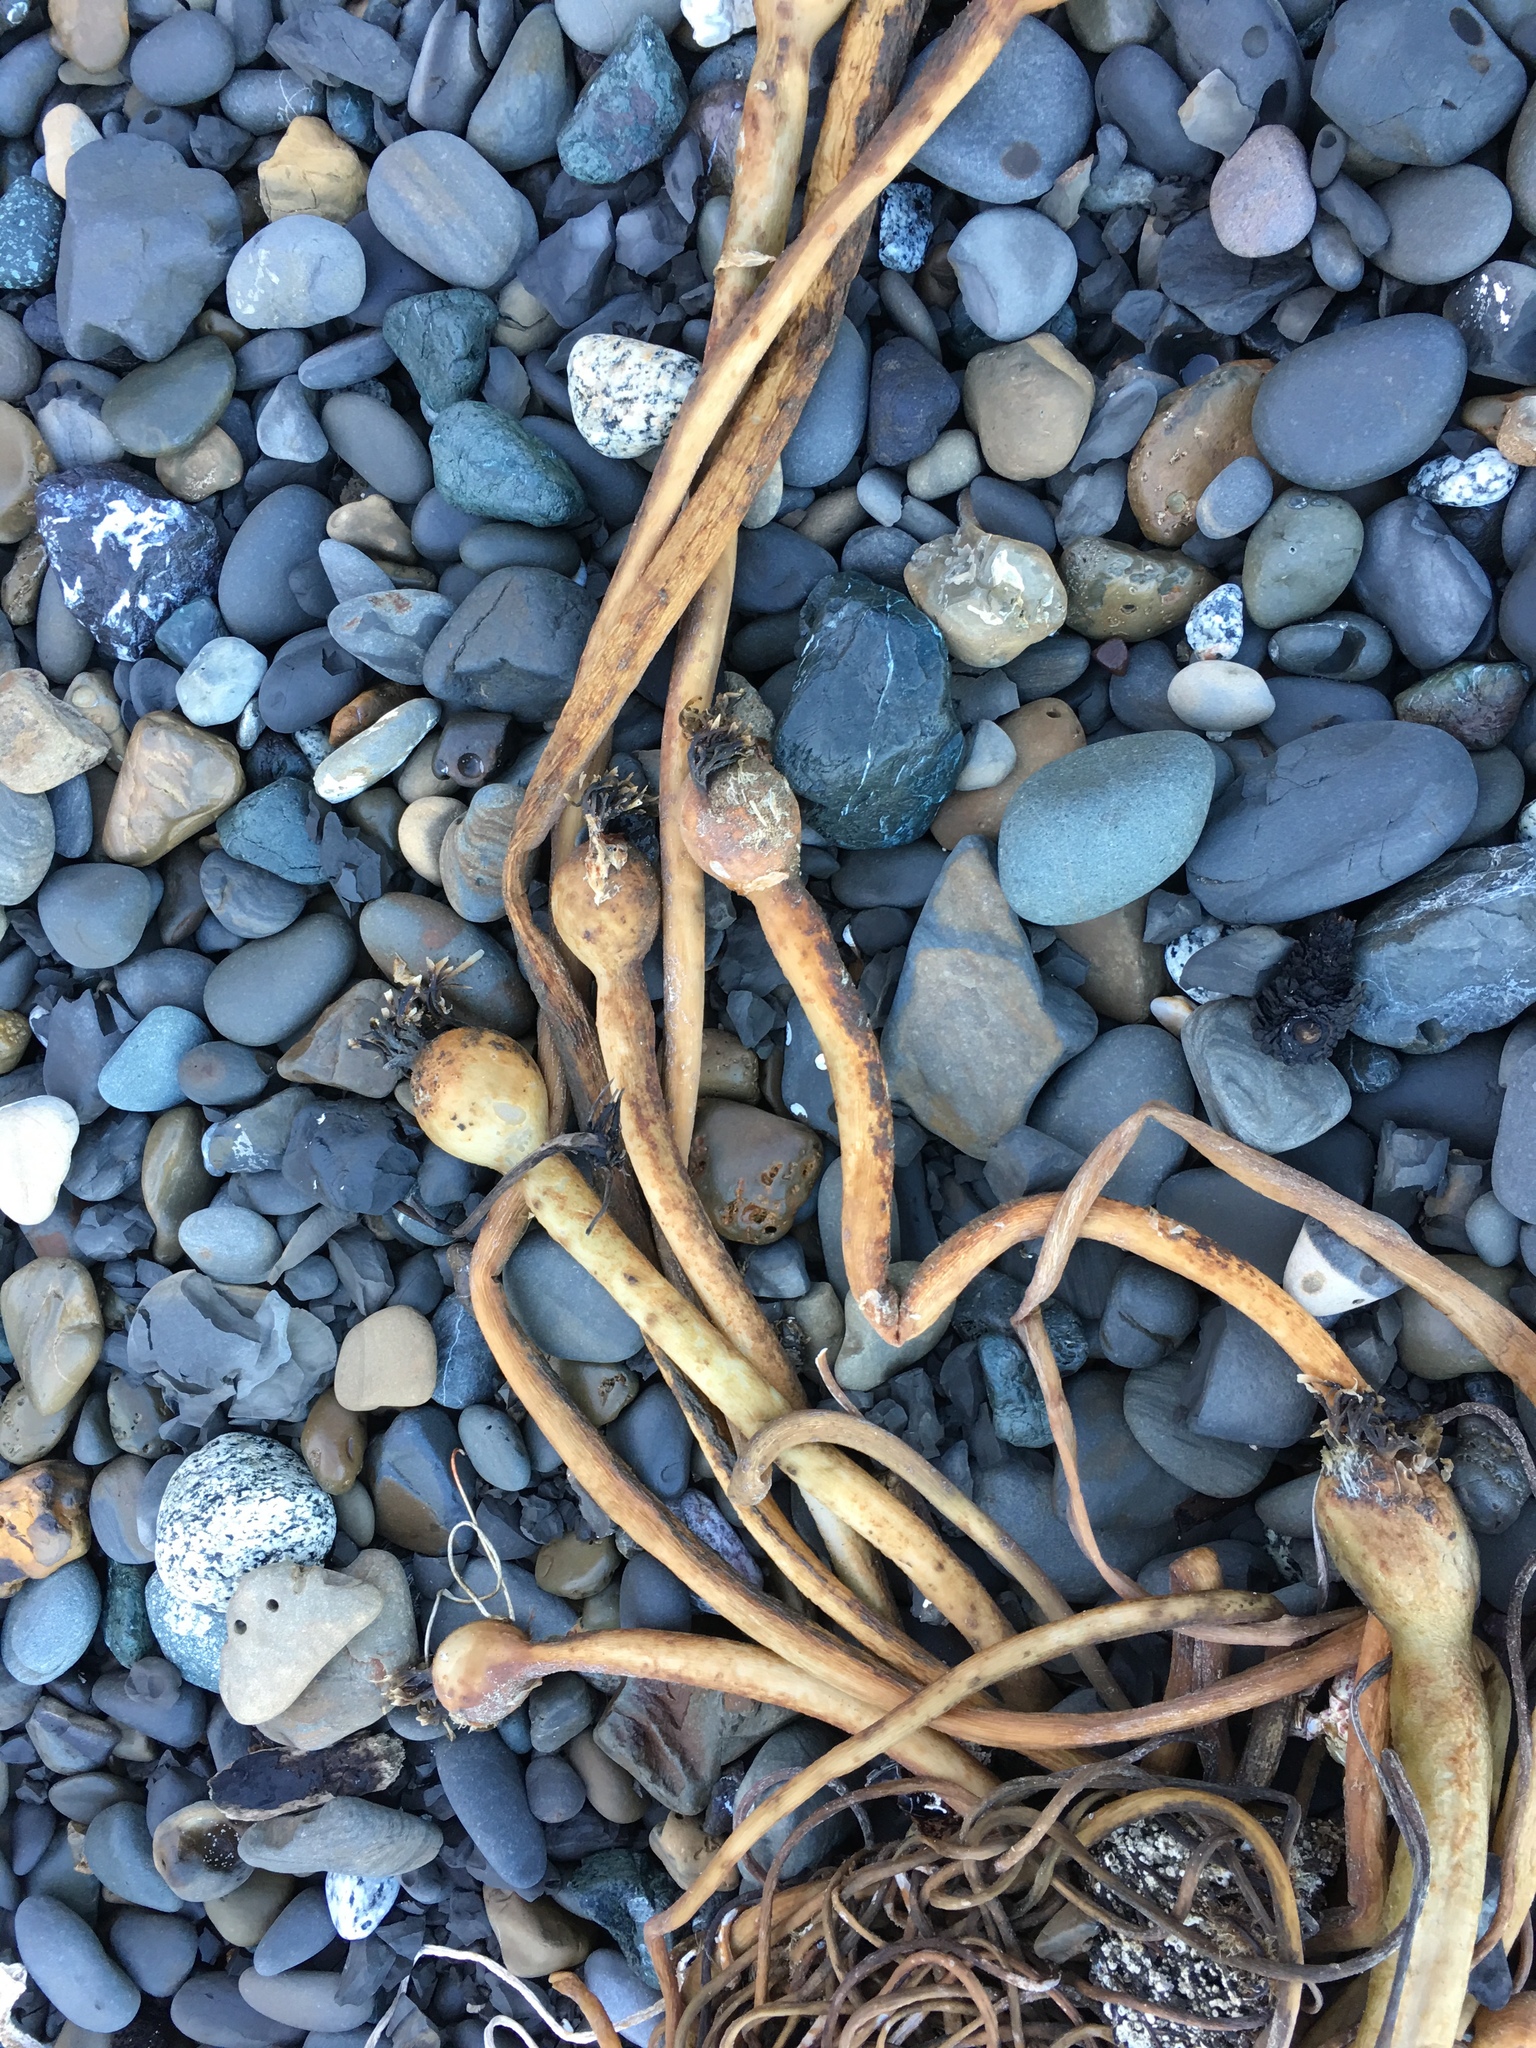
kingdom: Chromista
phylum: Ochrophyta
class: Phaeophyceae
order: Laminariales
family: Laminariaceae
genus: Nereocystis
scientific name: Nereocystis luetkeana
